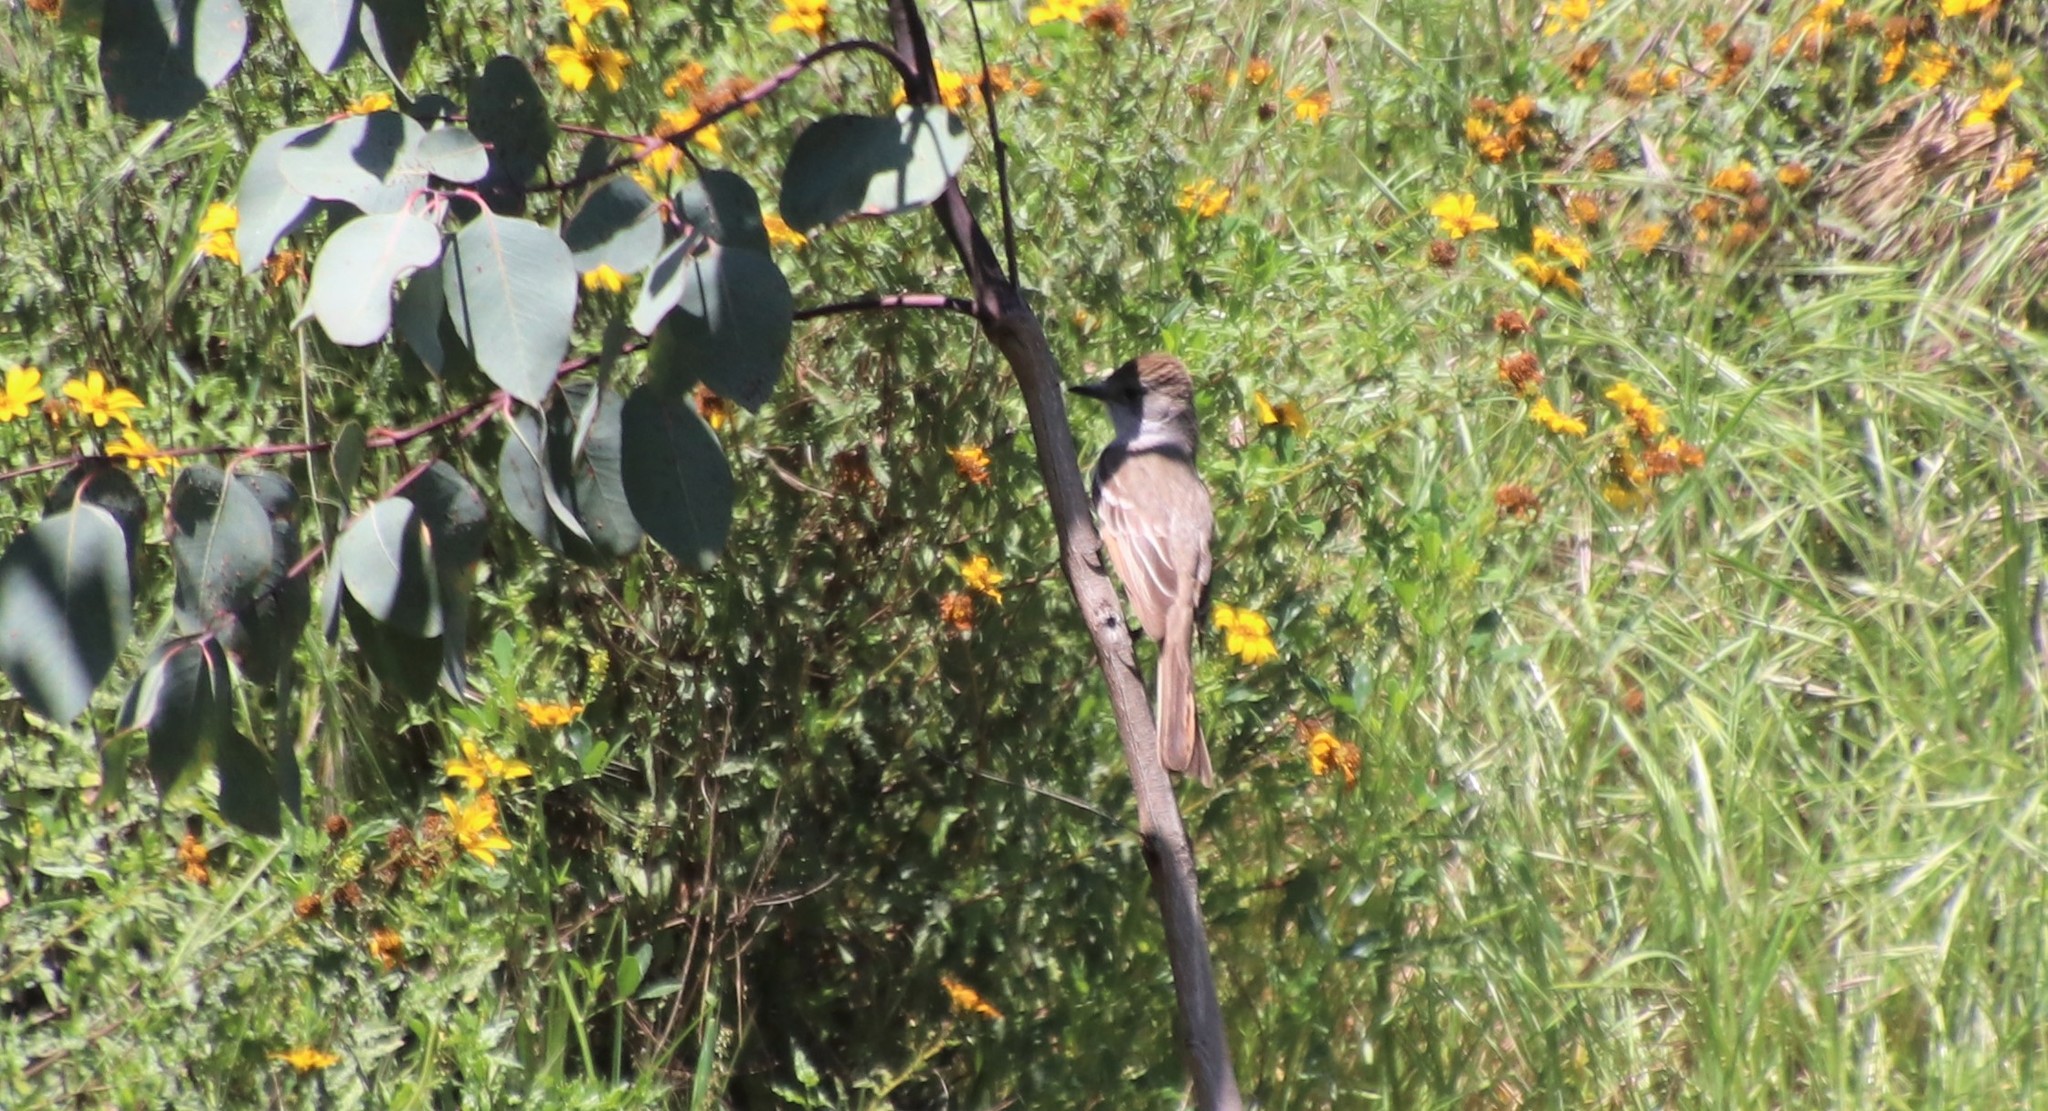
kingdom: Animalia
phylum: Chordata
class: Aves
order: Passeriformes
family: Tyrannidae
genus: Myiarchus
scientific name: Myiarchus cinerascens
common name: Ash-throated flycatcher
